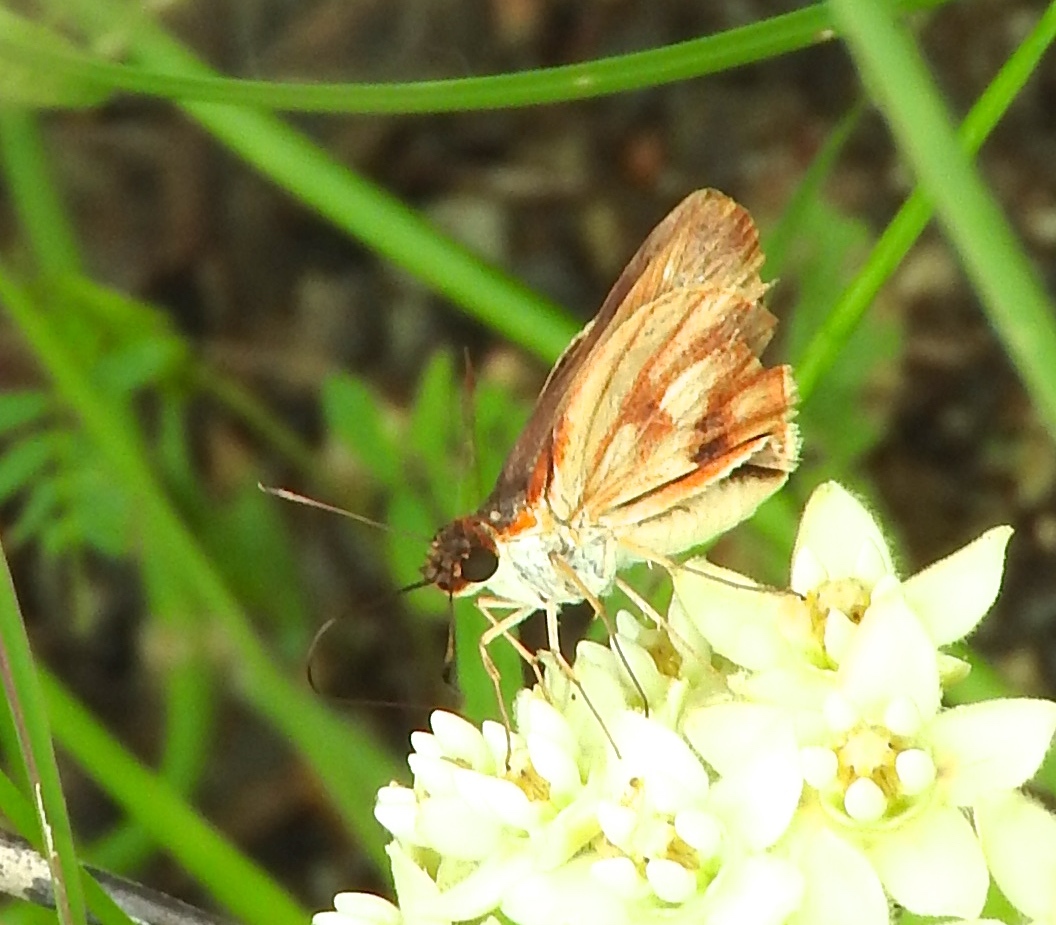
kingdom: Animalia
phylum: Arthropoda
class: Insecta
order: Lepidoptera
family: Hesperiidae
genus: Troyus
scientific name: Troyus fantasos
